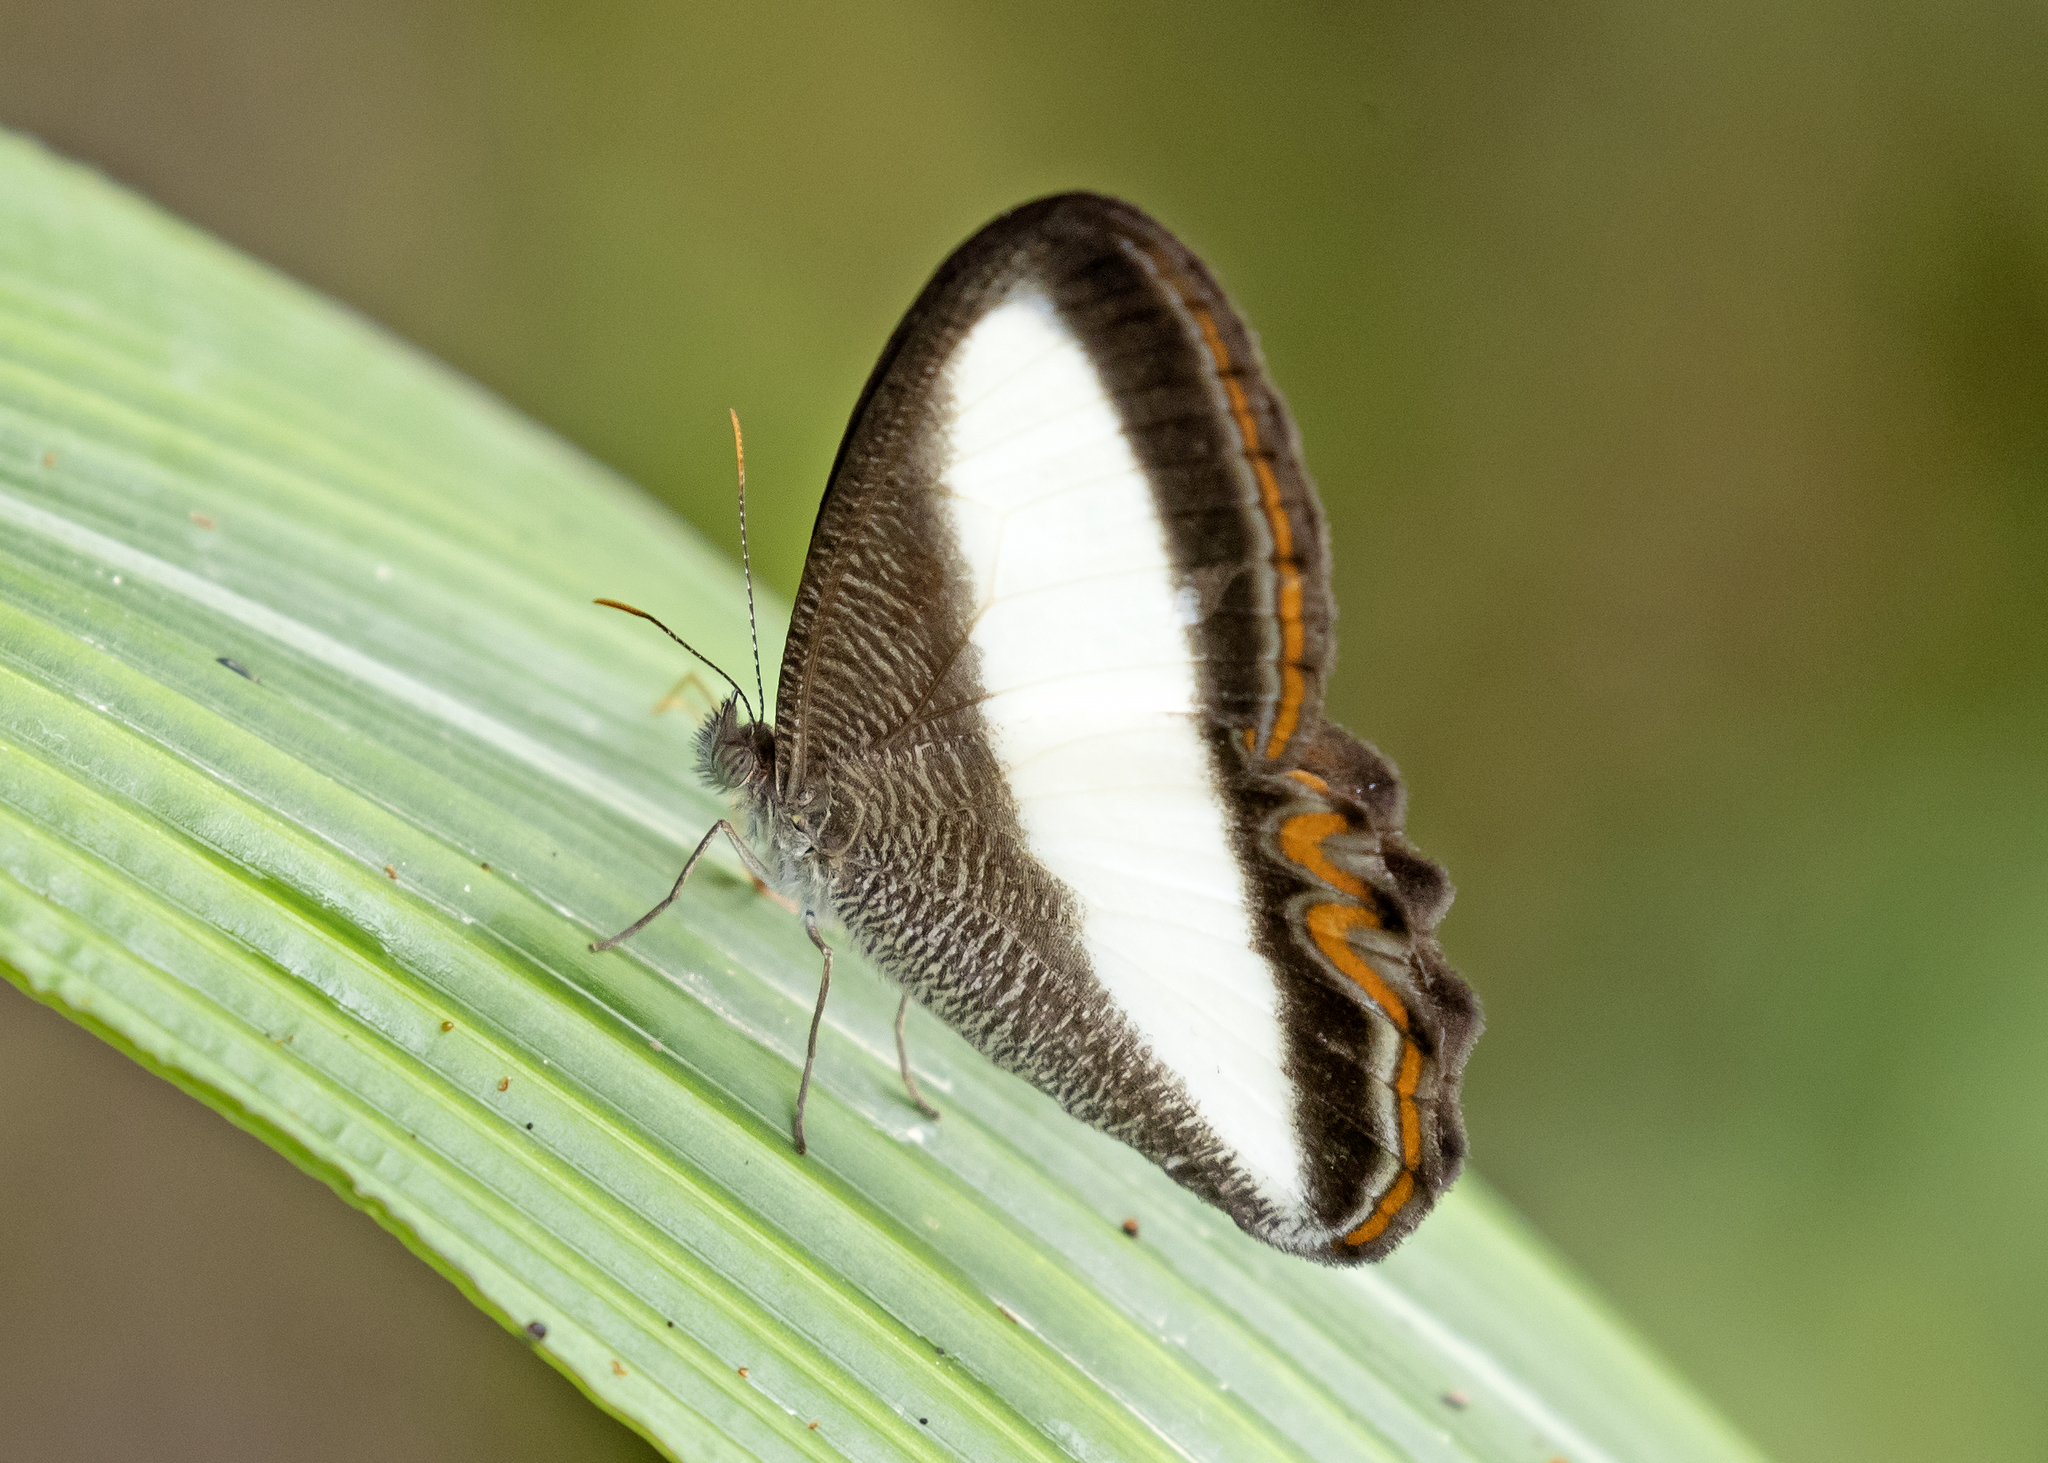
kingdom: Animalia
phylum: Arthropoda
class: Insecta
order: Lepidoptera
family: Nymphalidae
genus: Oressinoma
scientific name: Oressinoma typhla
